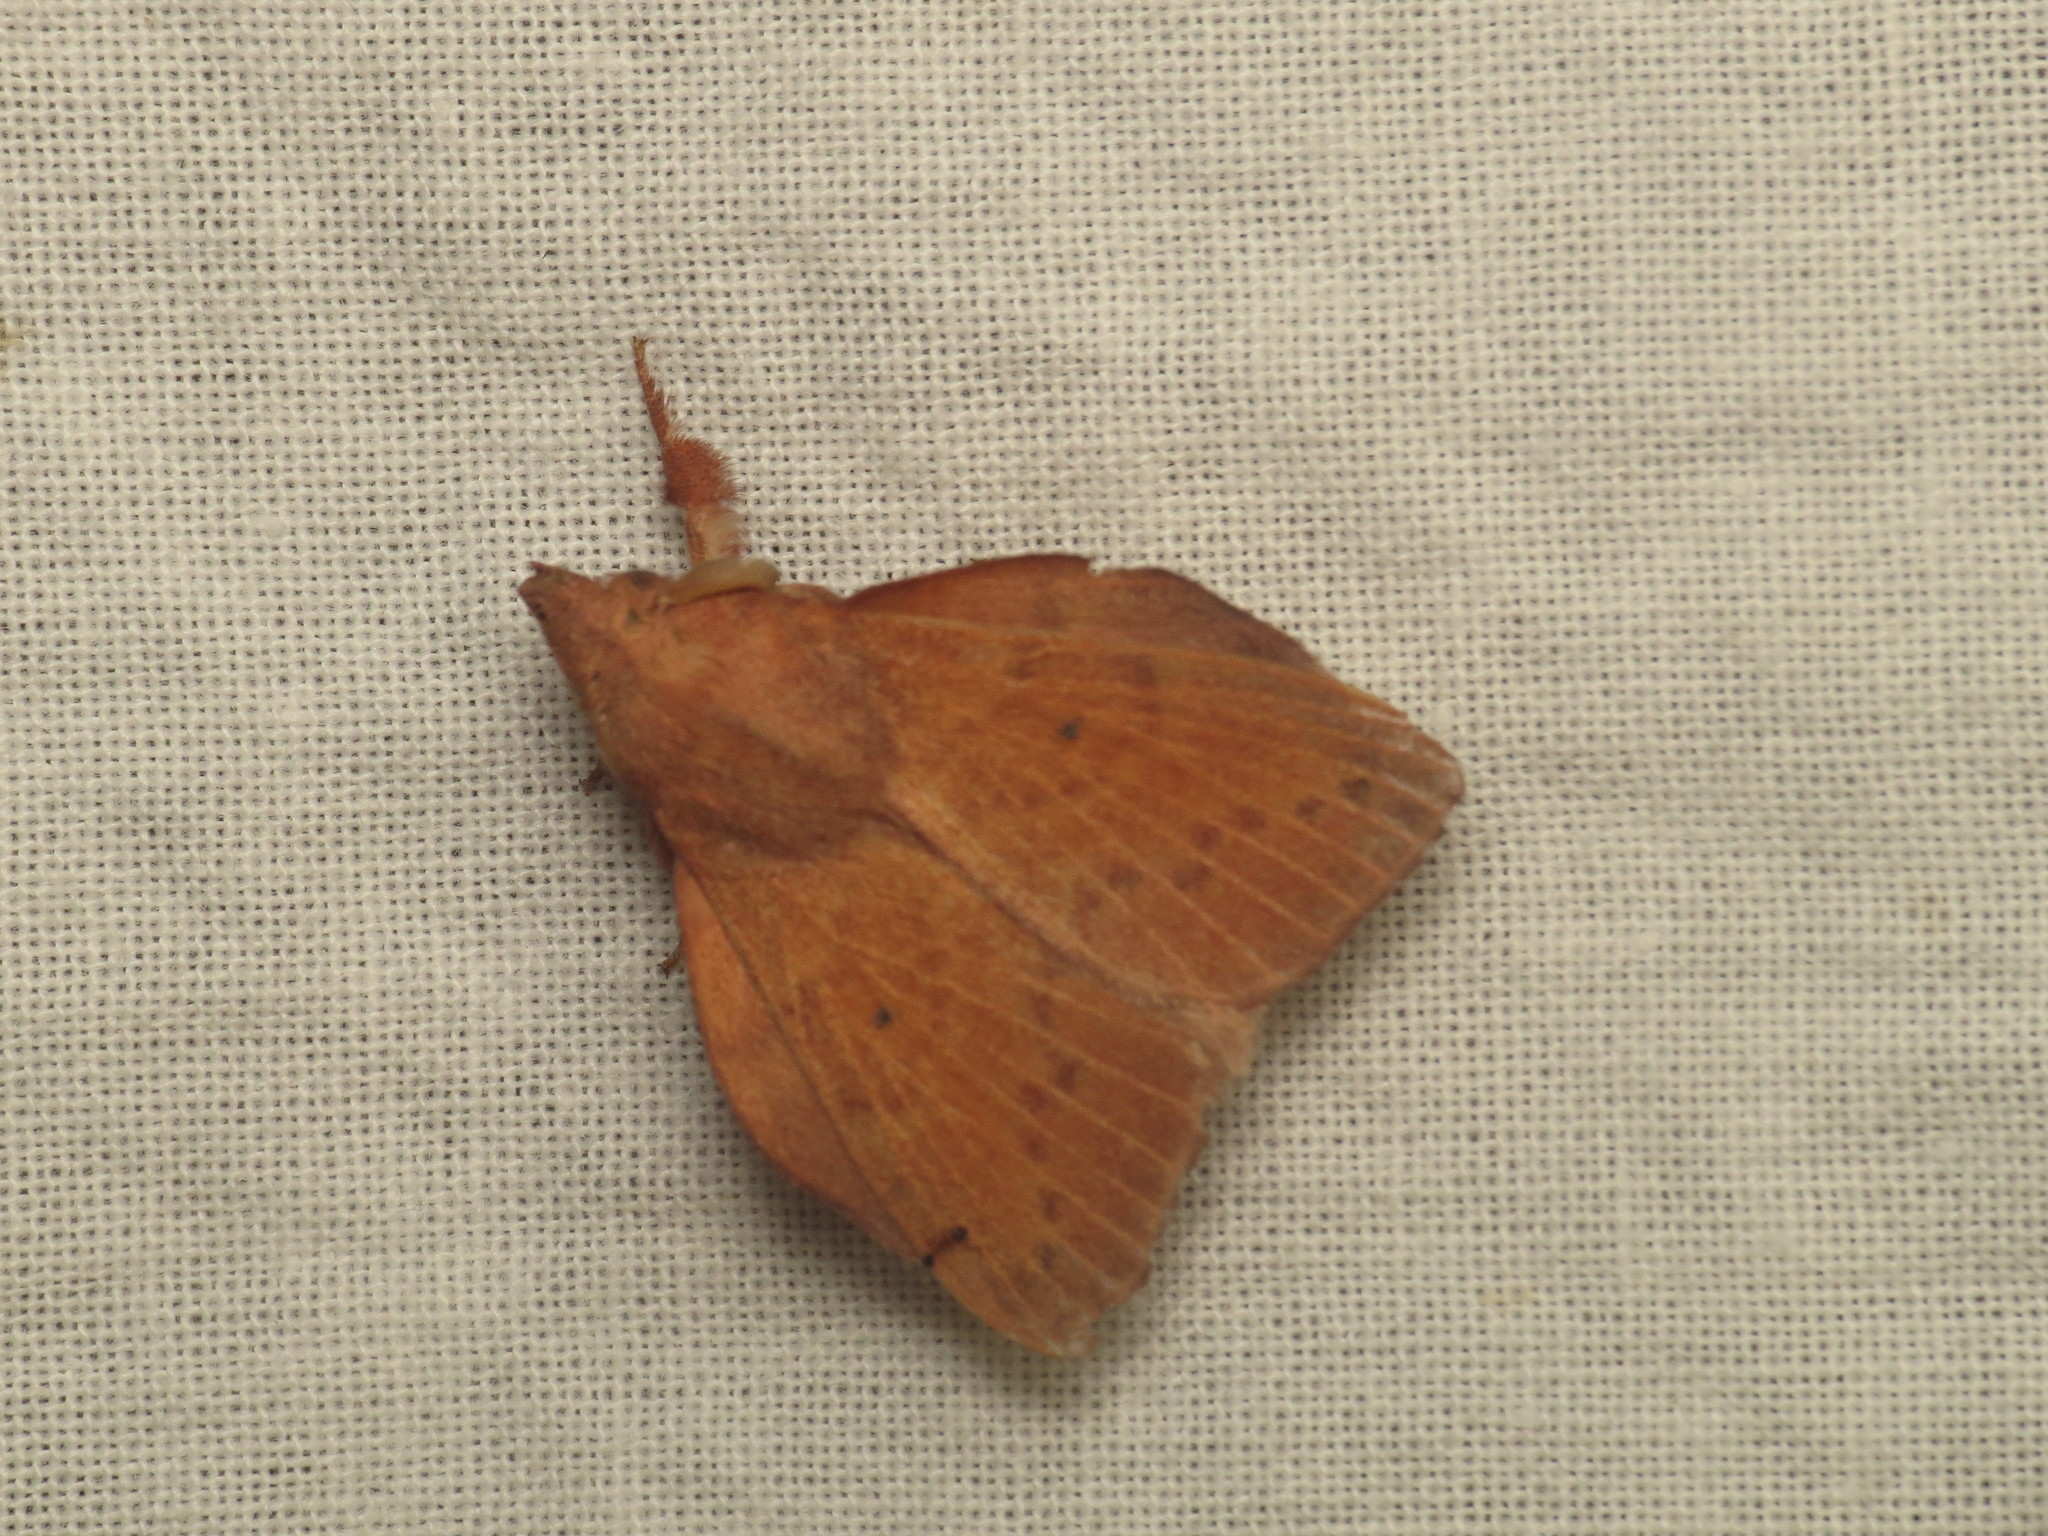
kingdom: Animalia
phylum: Arthropoda
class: Insecta
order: Lepidoptera
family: Lasiocampidae
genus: Pararguda
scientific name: Pararguda australasiae
